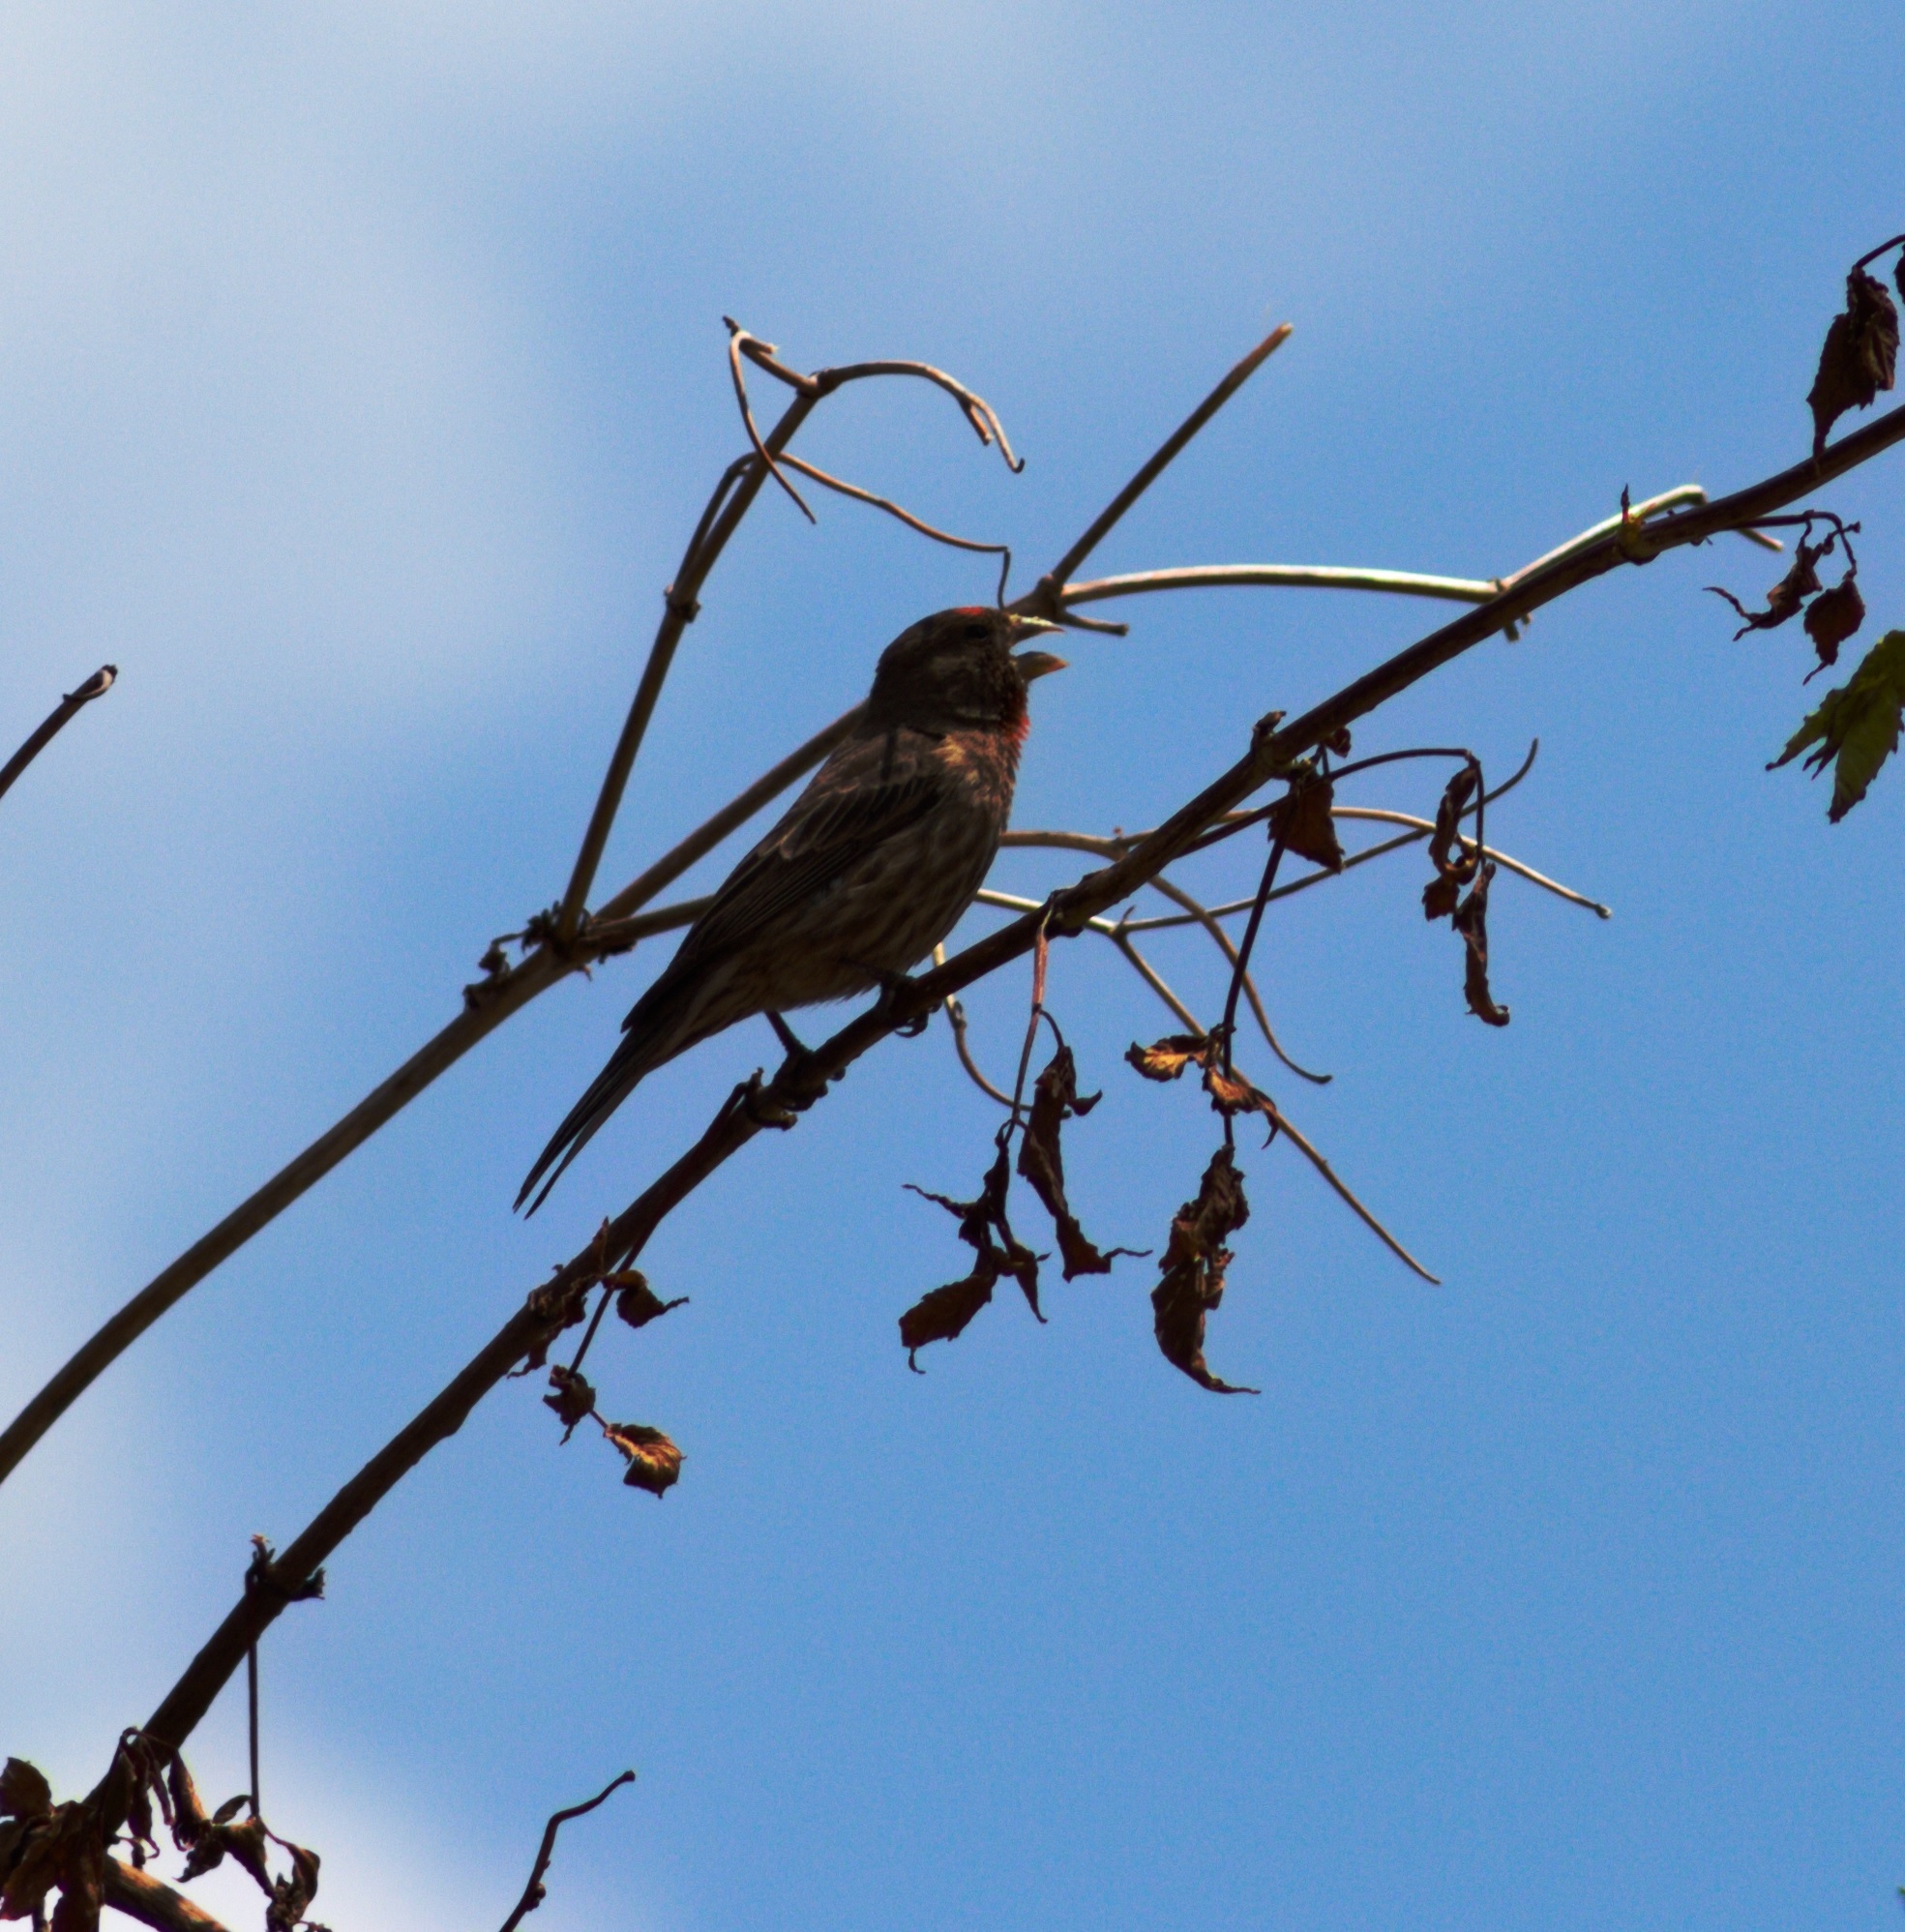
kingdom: Animalia
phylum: Chordata
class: Aves
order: Passeriformes
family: Fringillidae
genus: Haemorhous
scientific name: Haemorhous mexicanus
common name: House finch
